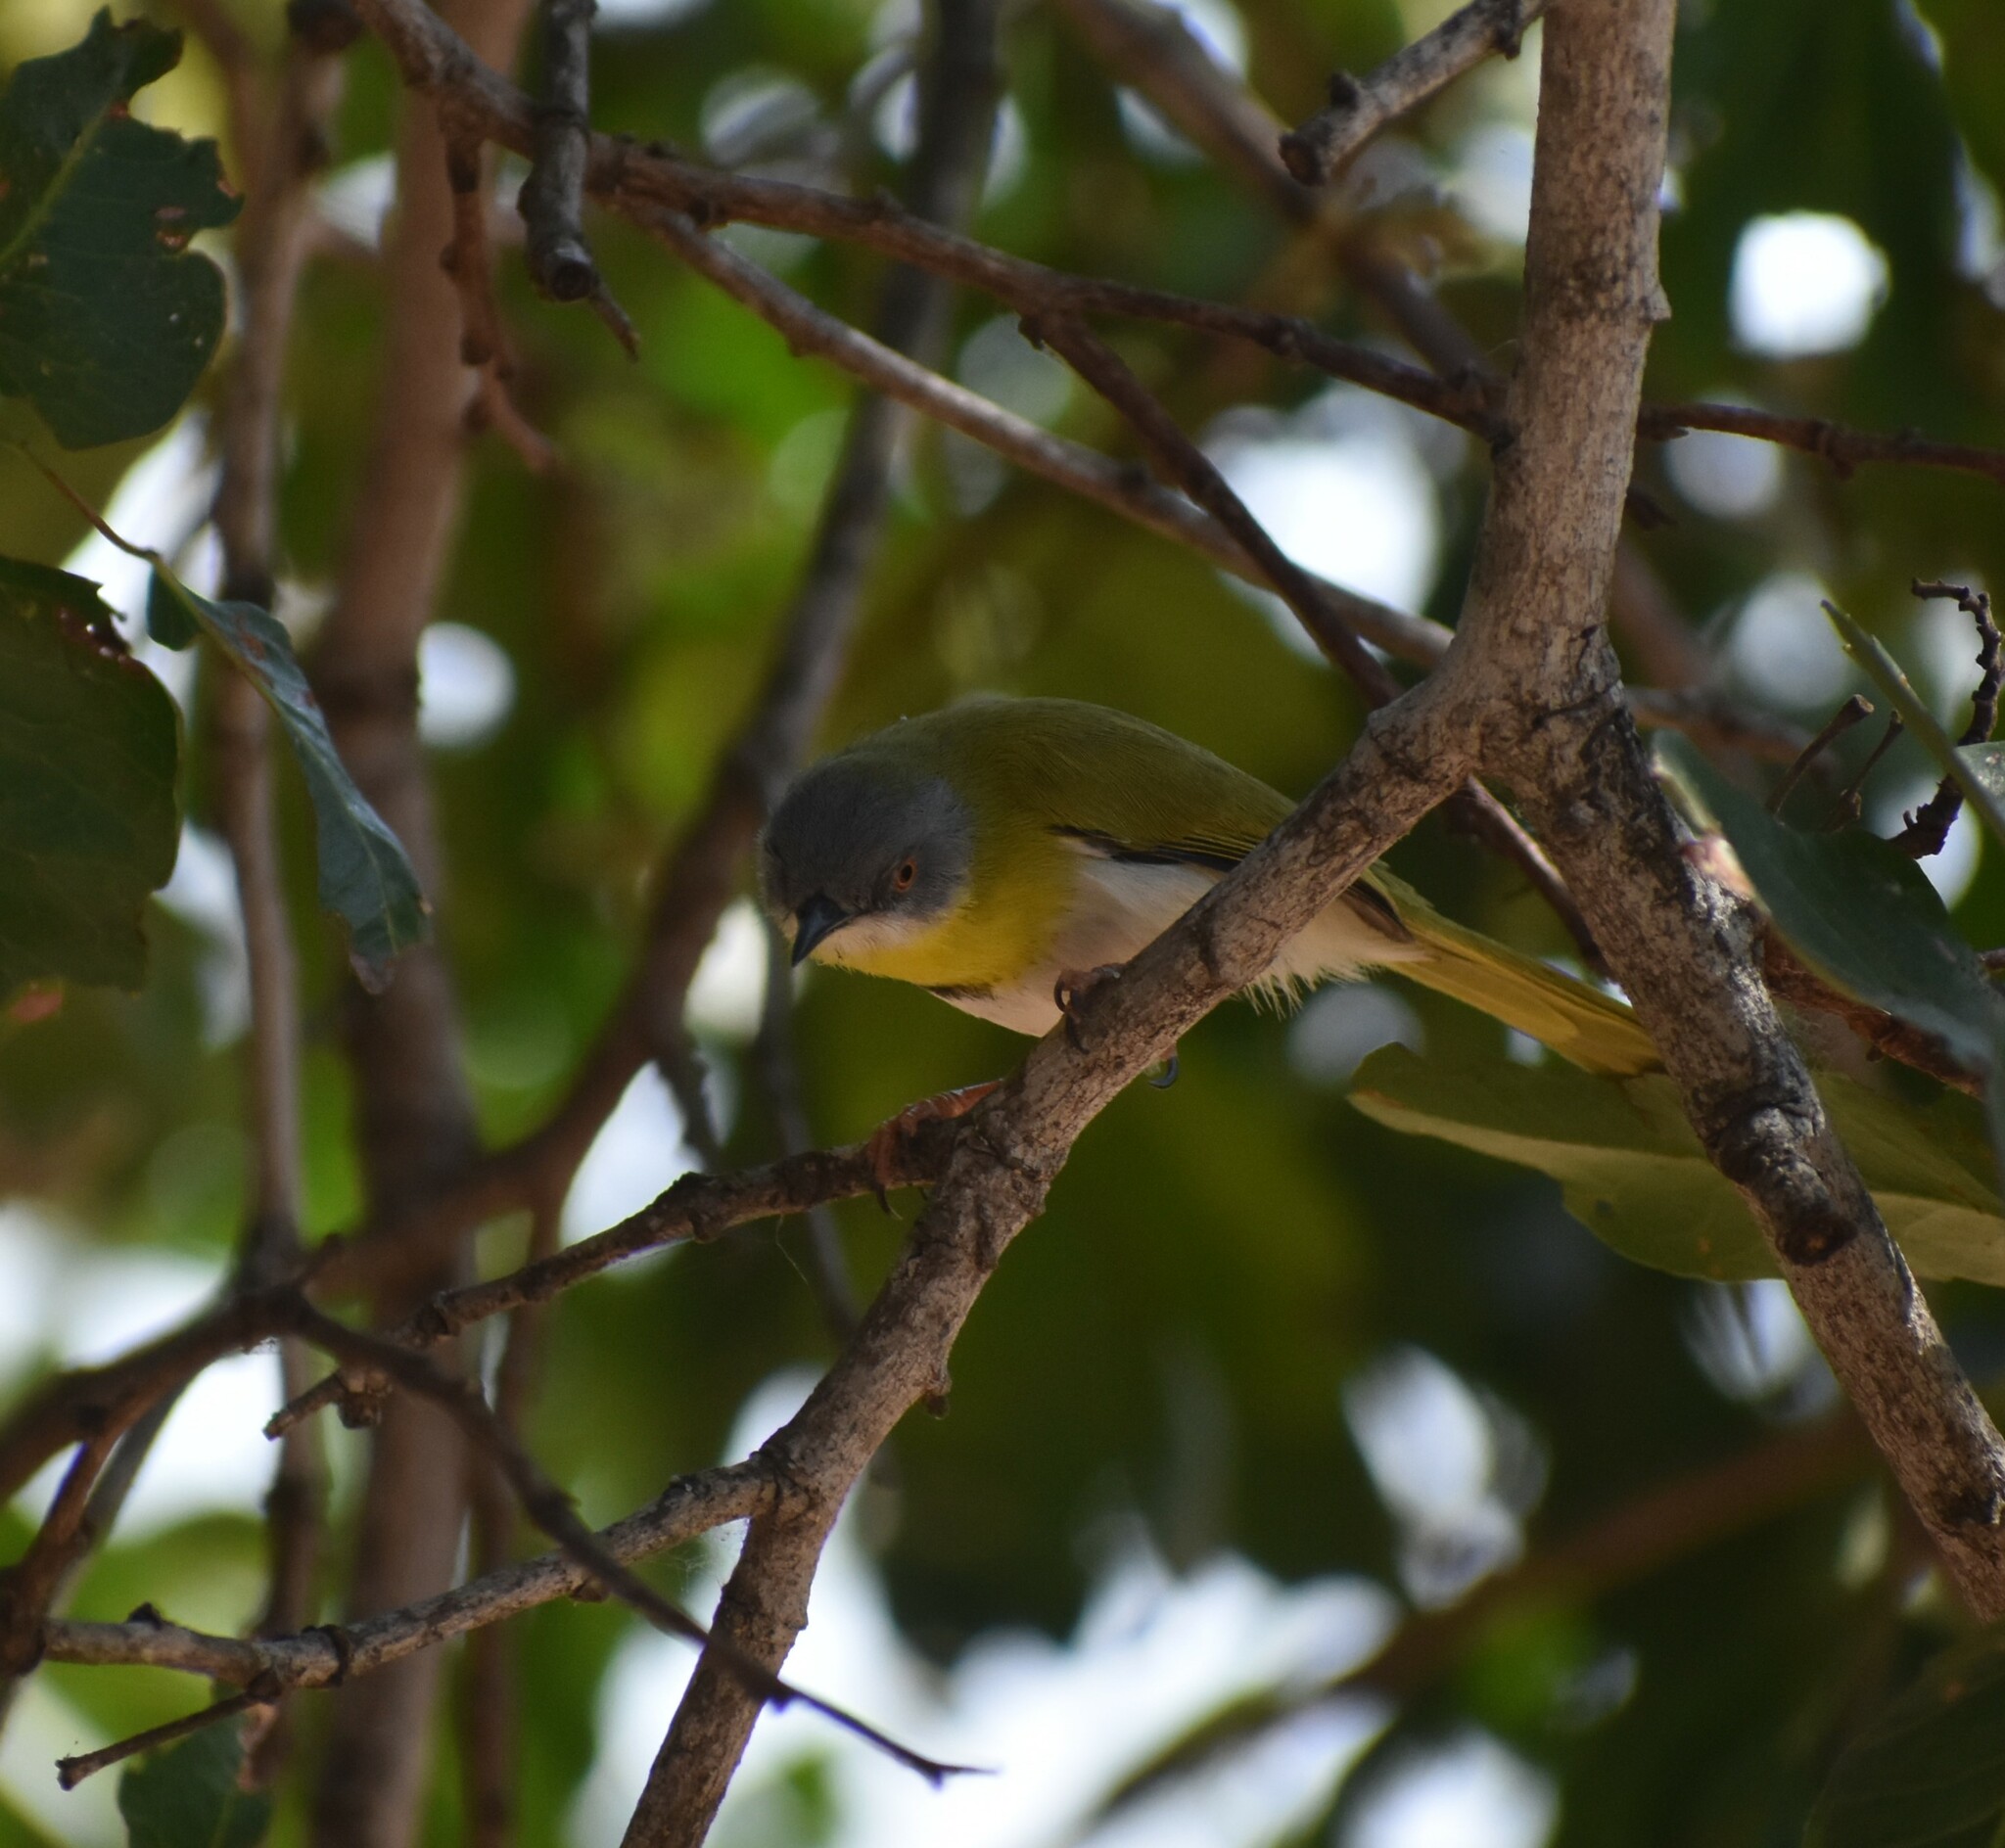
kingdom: Animalia
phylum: Chordata
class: Aves
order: Passeriformes
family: Cisticolidae
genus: Apalis
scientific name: Apalis flavida
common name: Yellow-breasted apalis
